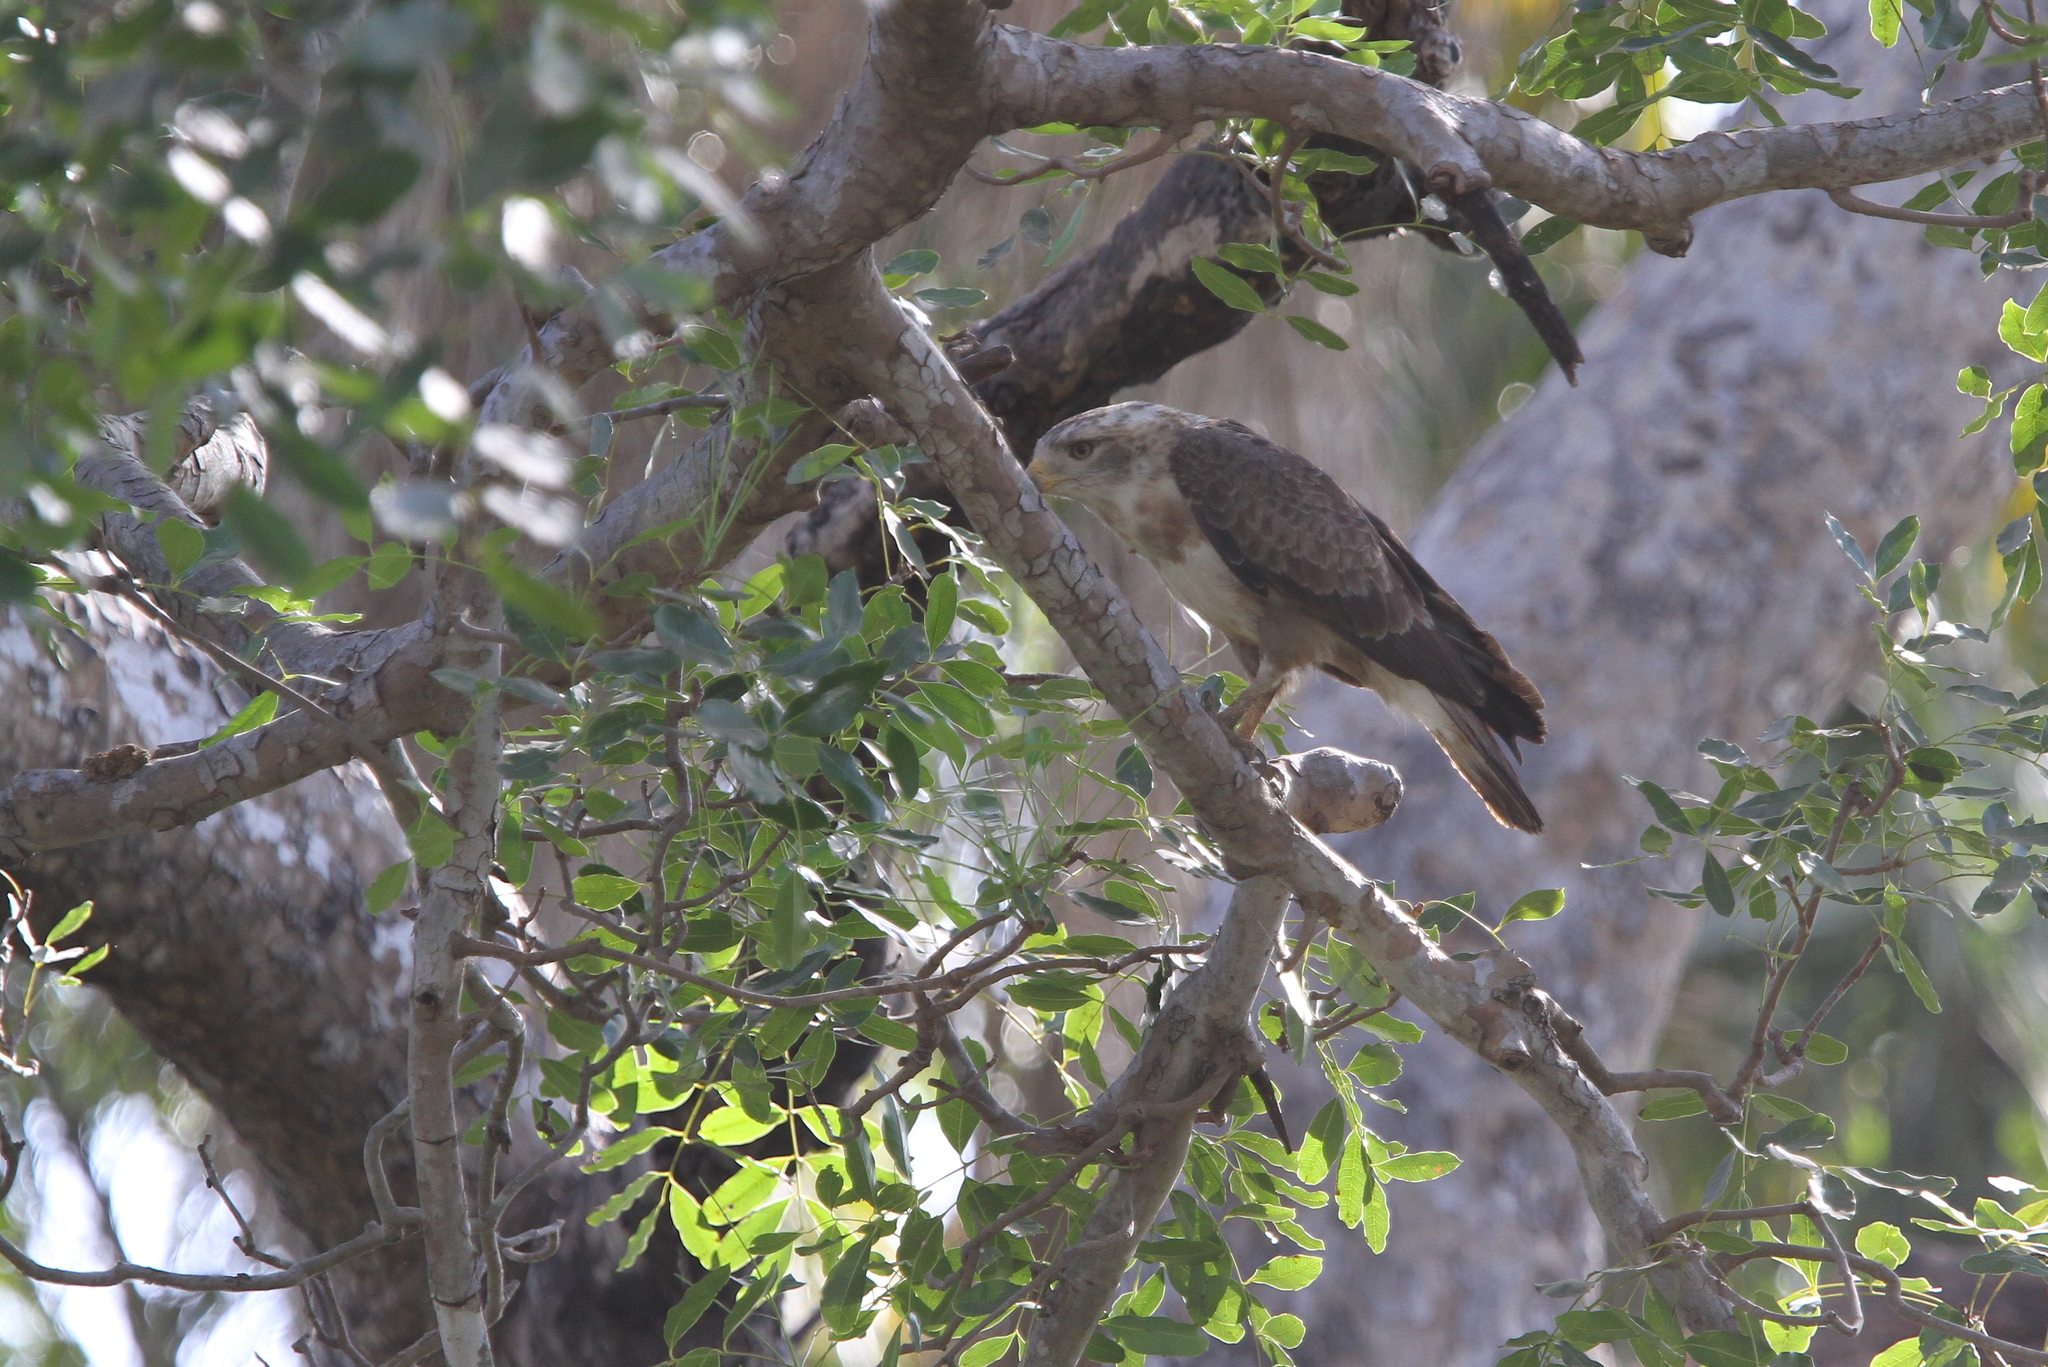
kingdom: Animalia
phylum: Chordata
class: Aves
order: Accipitriformes
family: Accipitridae
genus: Circaetus
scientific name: Circaetus cinerascens
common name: Western banded snake eagle
